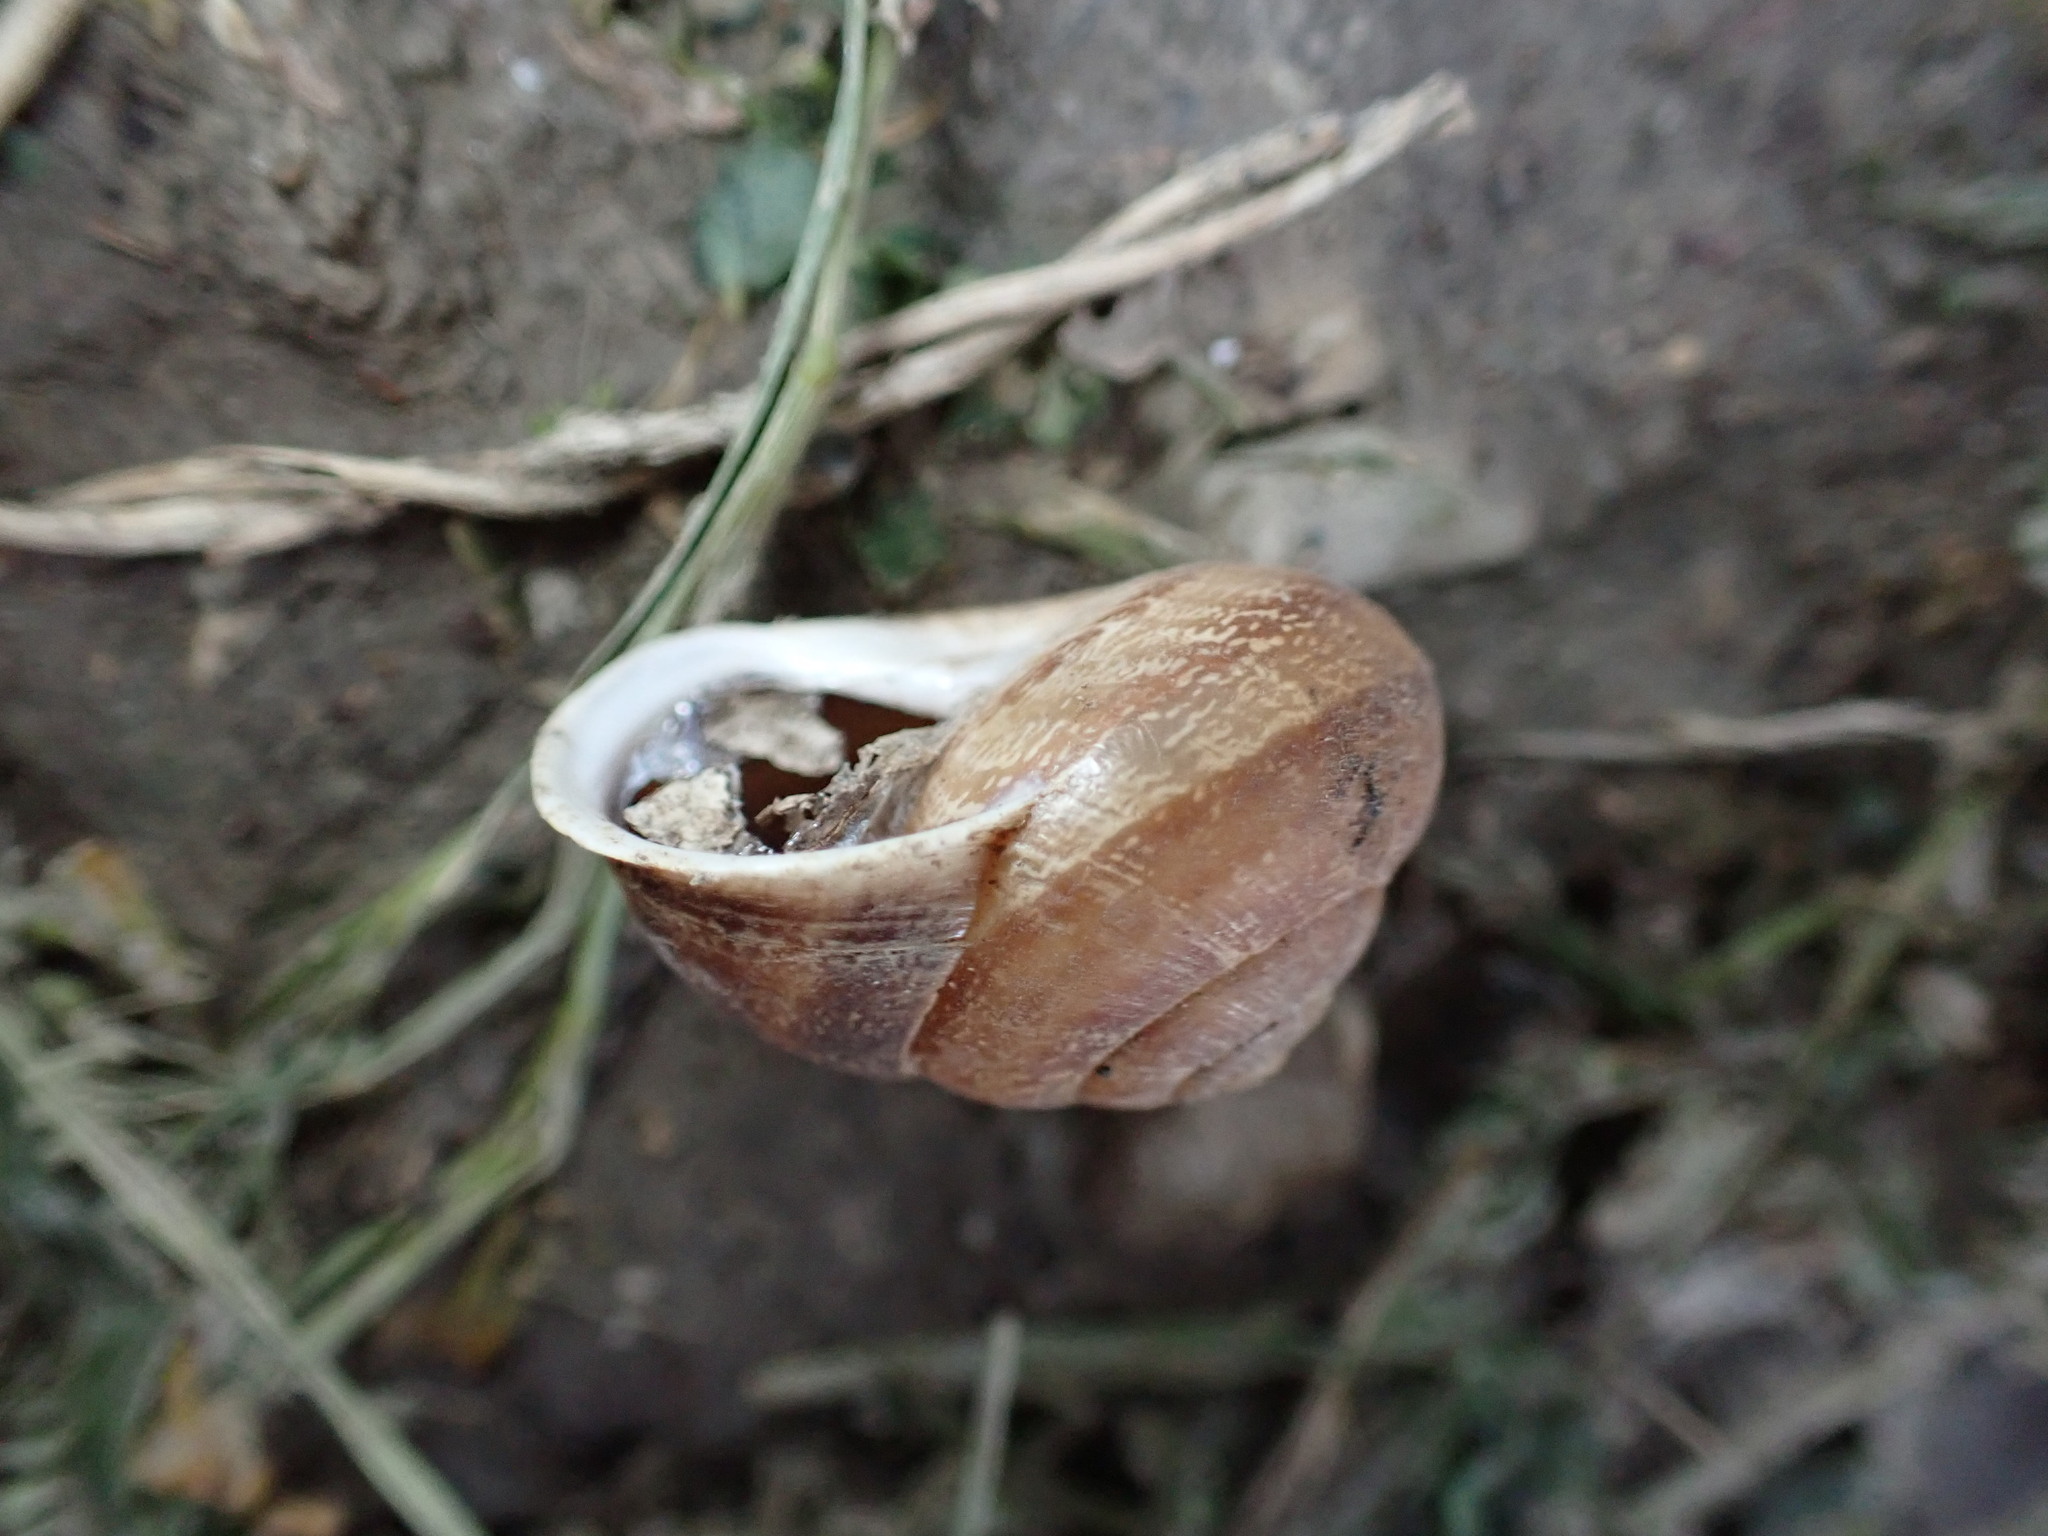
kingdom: Animalia
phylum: Mollusca
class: Gastropoda
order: Stylommatophora
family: Helicidae
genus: Eobania
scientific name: Eobania vermiculata
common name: Chocolateband snail
